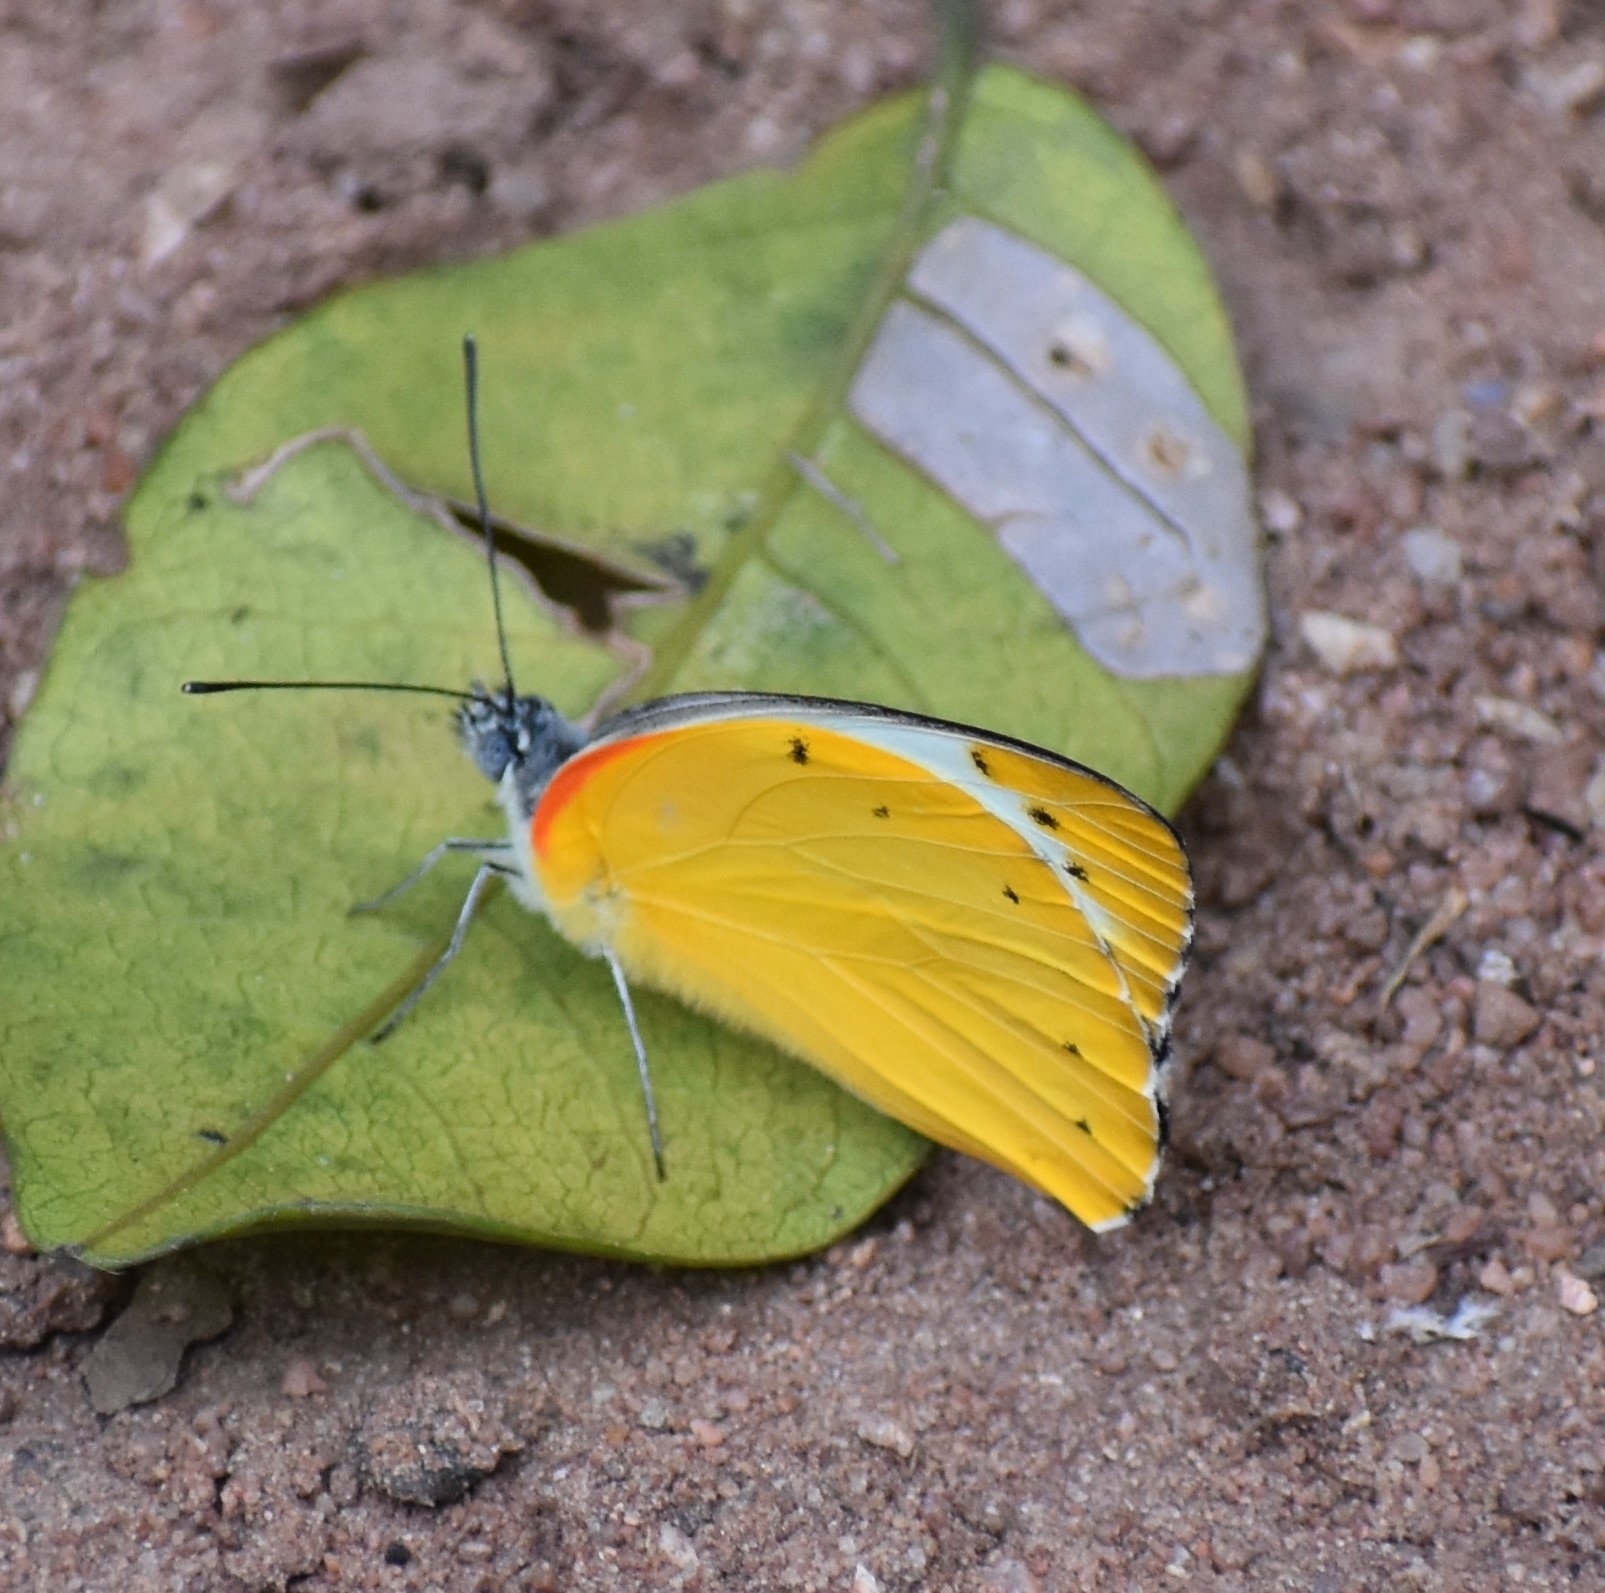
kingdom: Animalia
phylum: Arthropoda
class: Insecta
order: Lepidoptera
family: Pieridae
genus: Belenois
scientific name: Belenois thysa
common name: False dotted border
